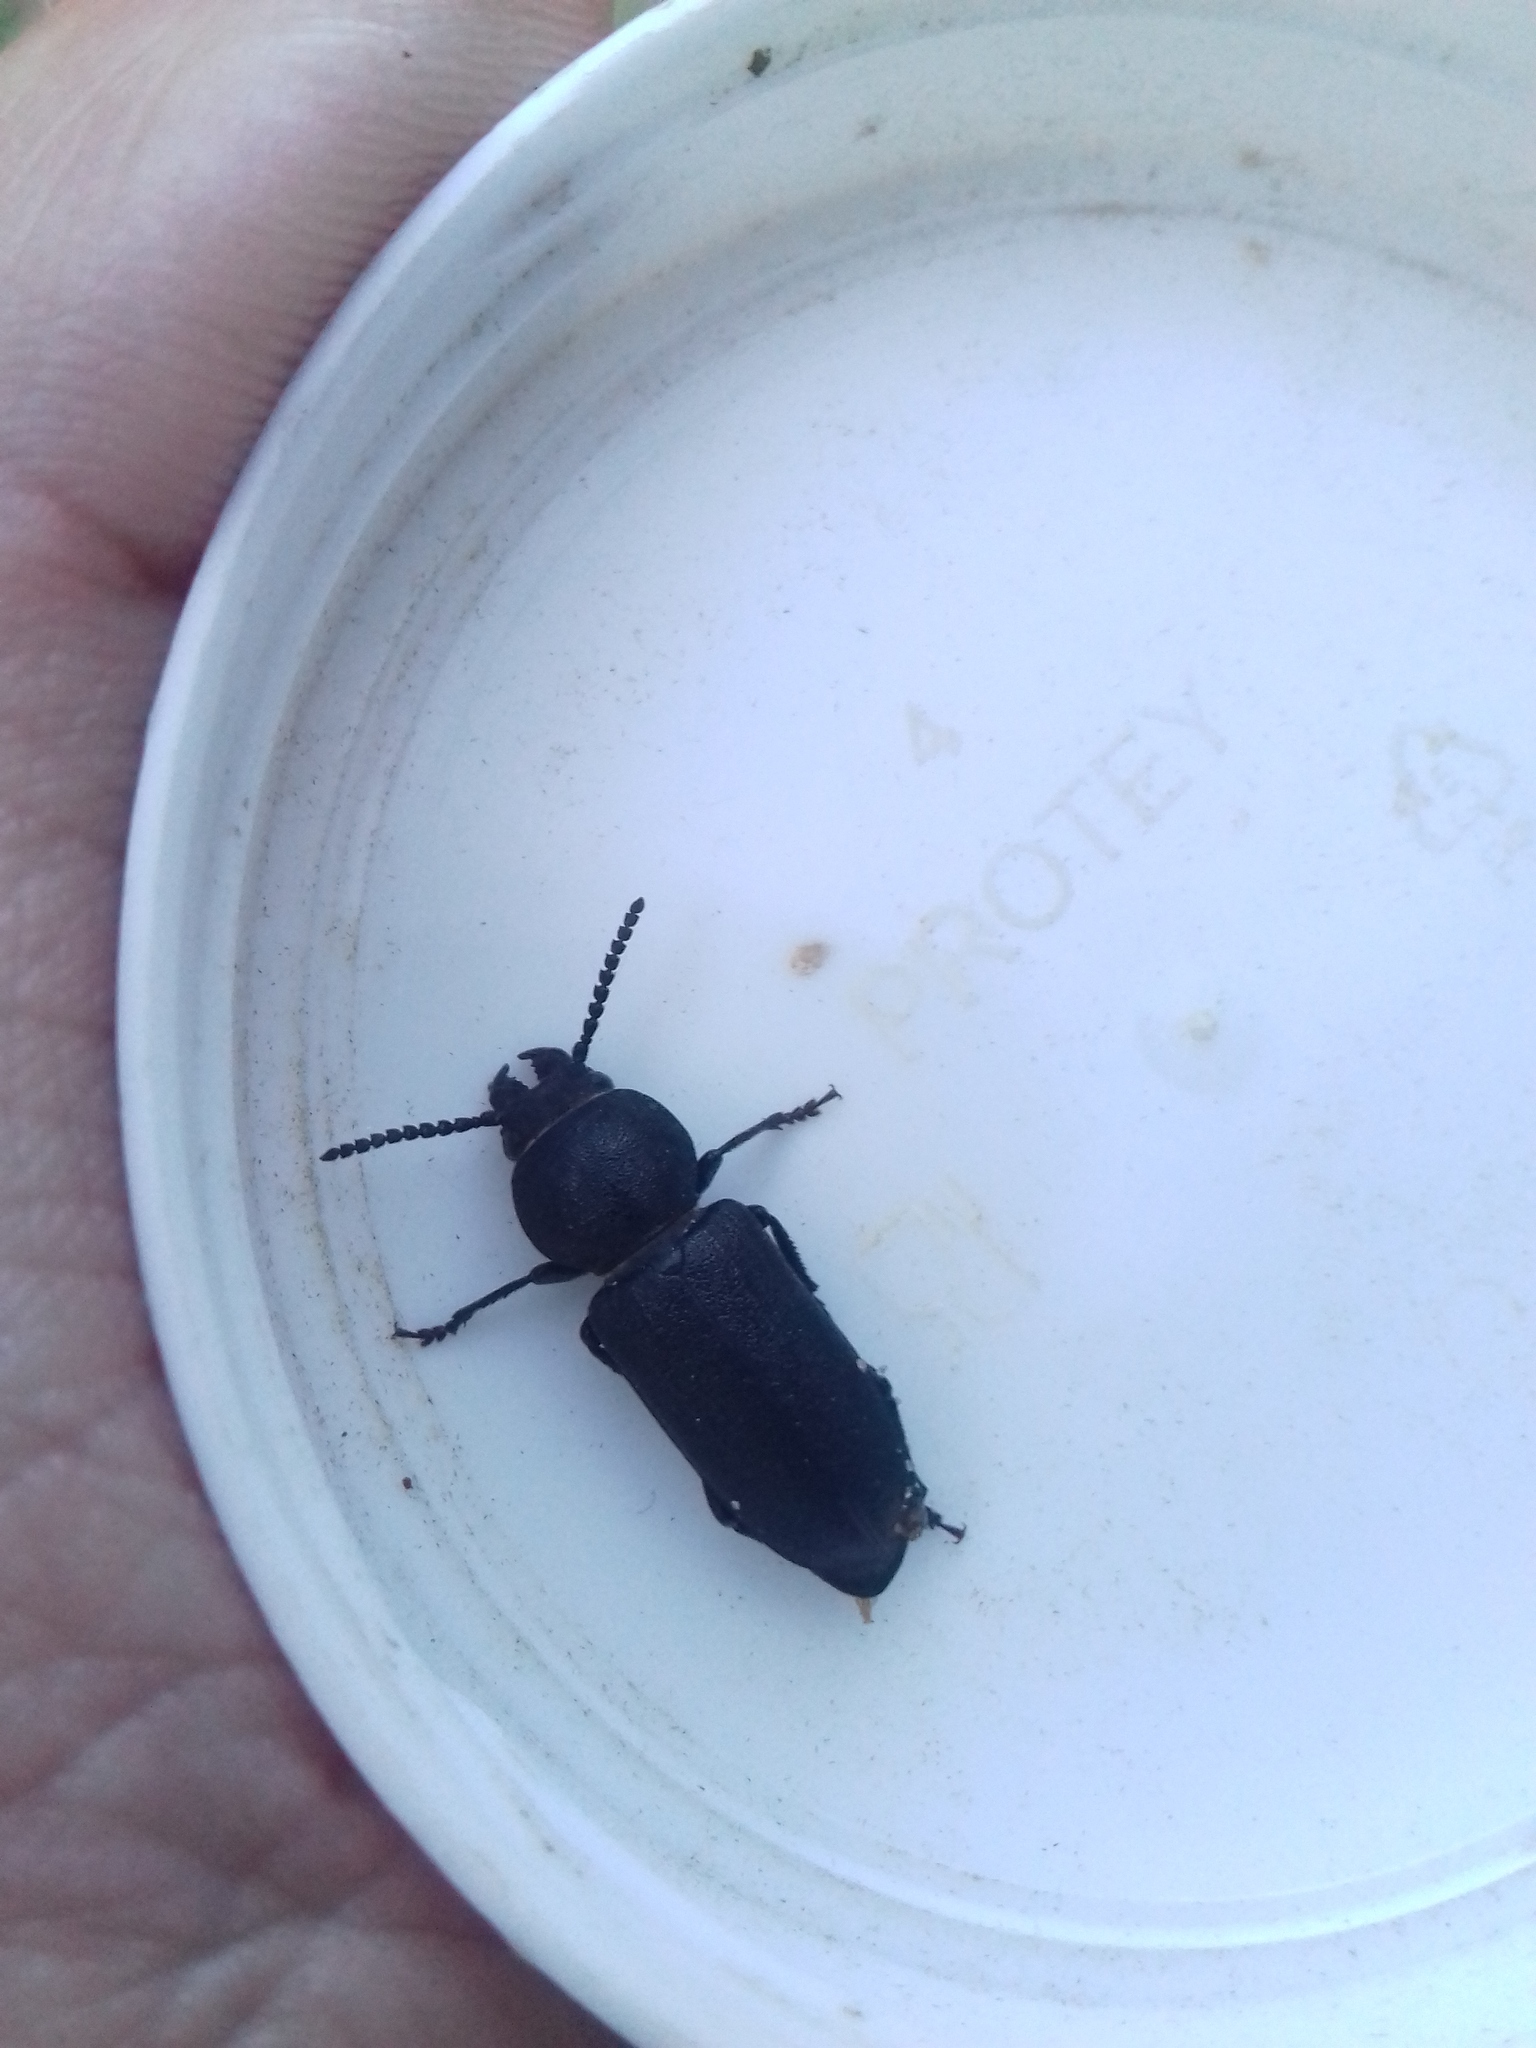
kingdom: Animalia
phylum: Arthropoda
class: Insecta
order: Coleoptera
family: Cerambycidae
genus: Spondylis
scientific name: Spondylis buprestoides
